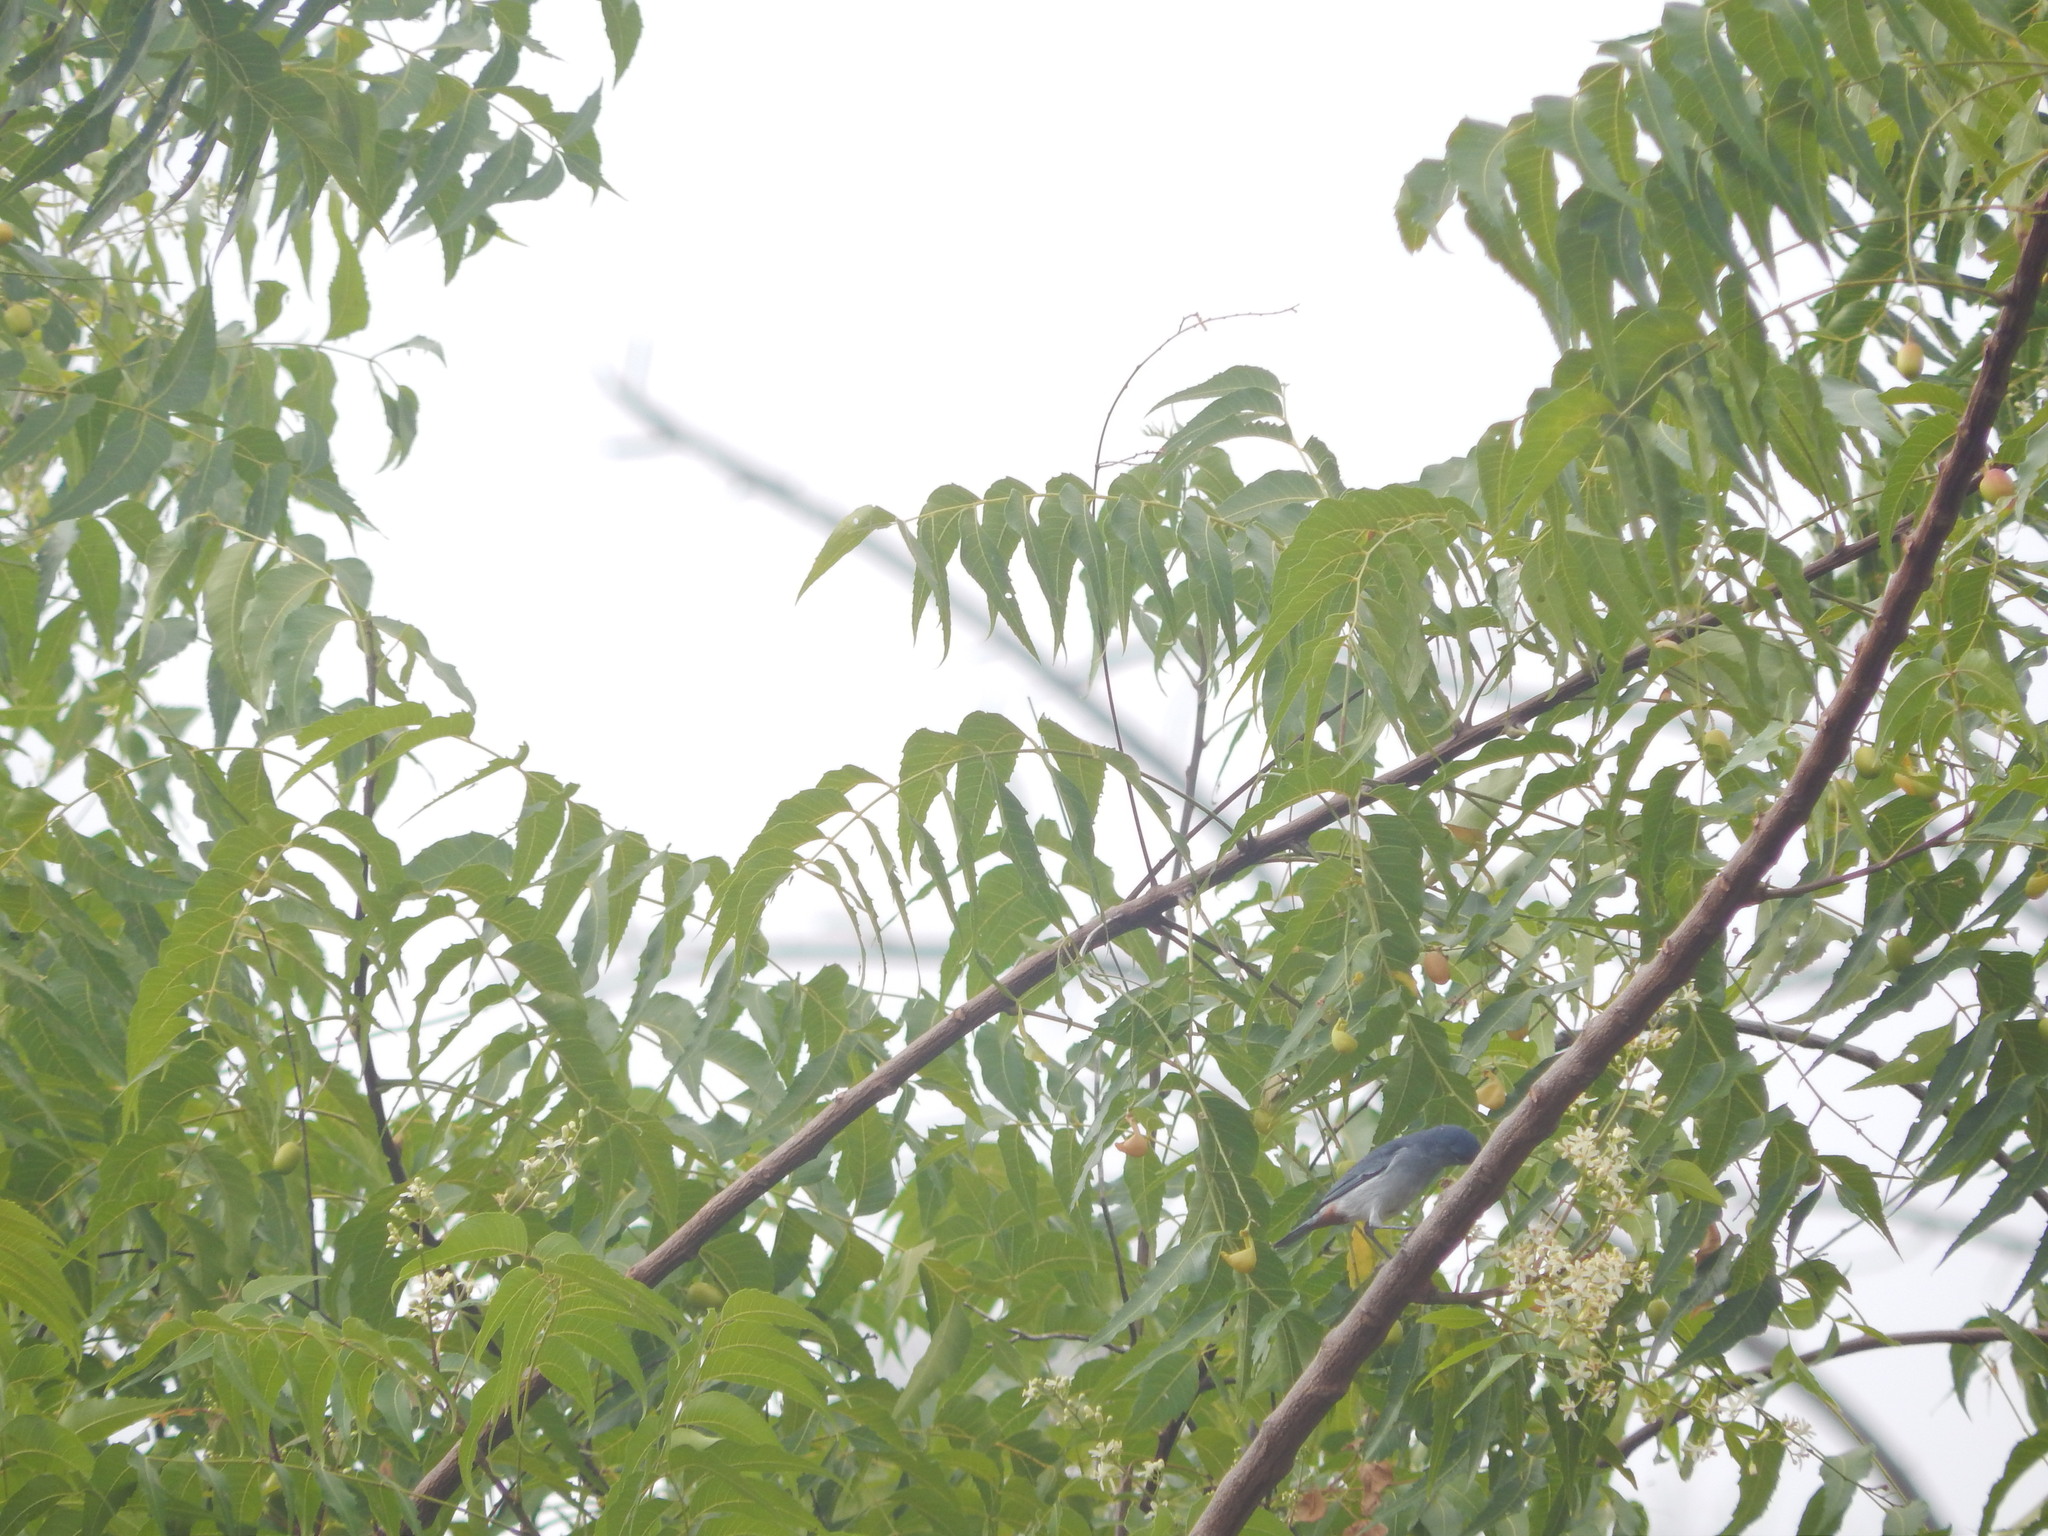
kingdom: Animalia
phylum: Chordata
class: Aves
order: Passeriformes
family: Thraupidae
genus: Conirostrum
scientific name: Conirostrum speciosum
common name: Chestnut-vented conebill
